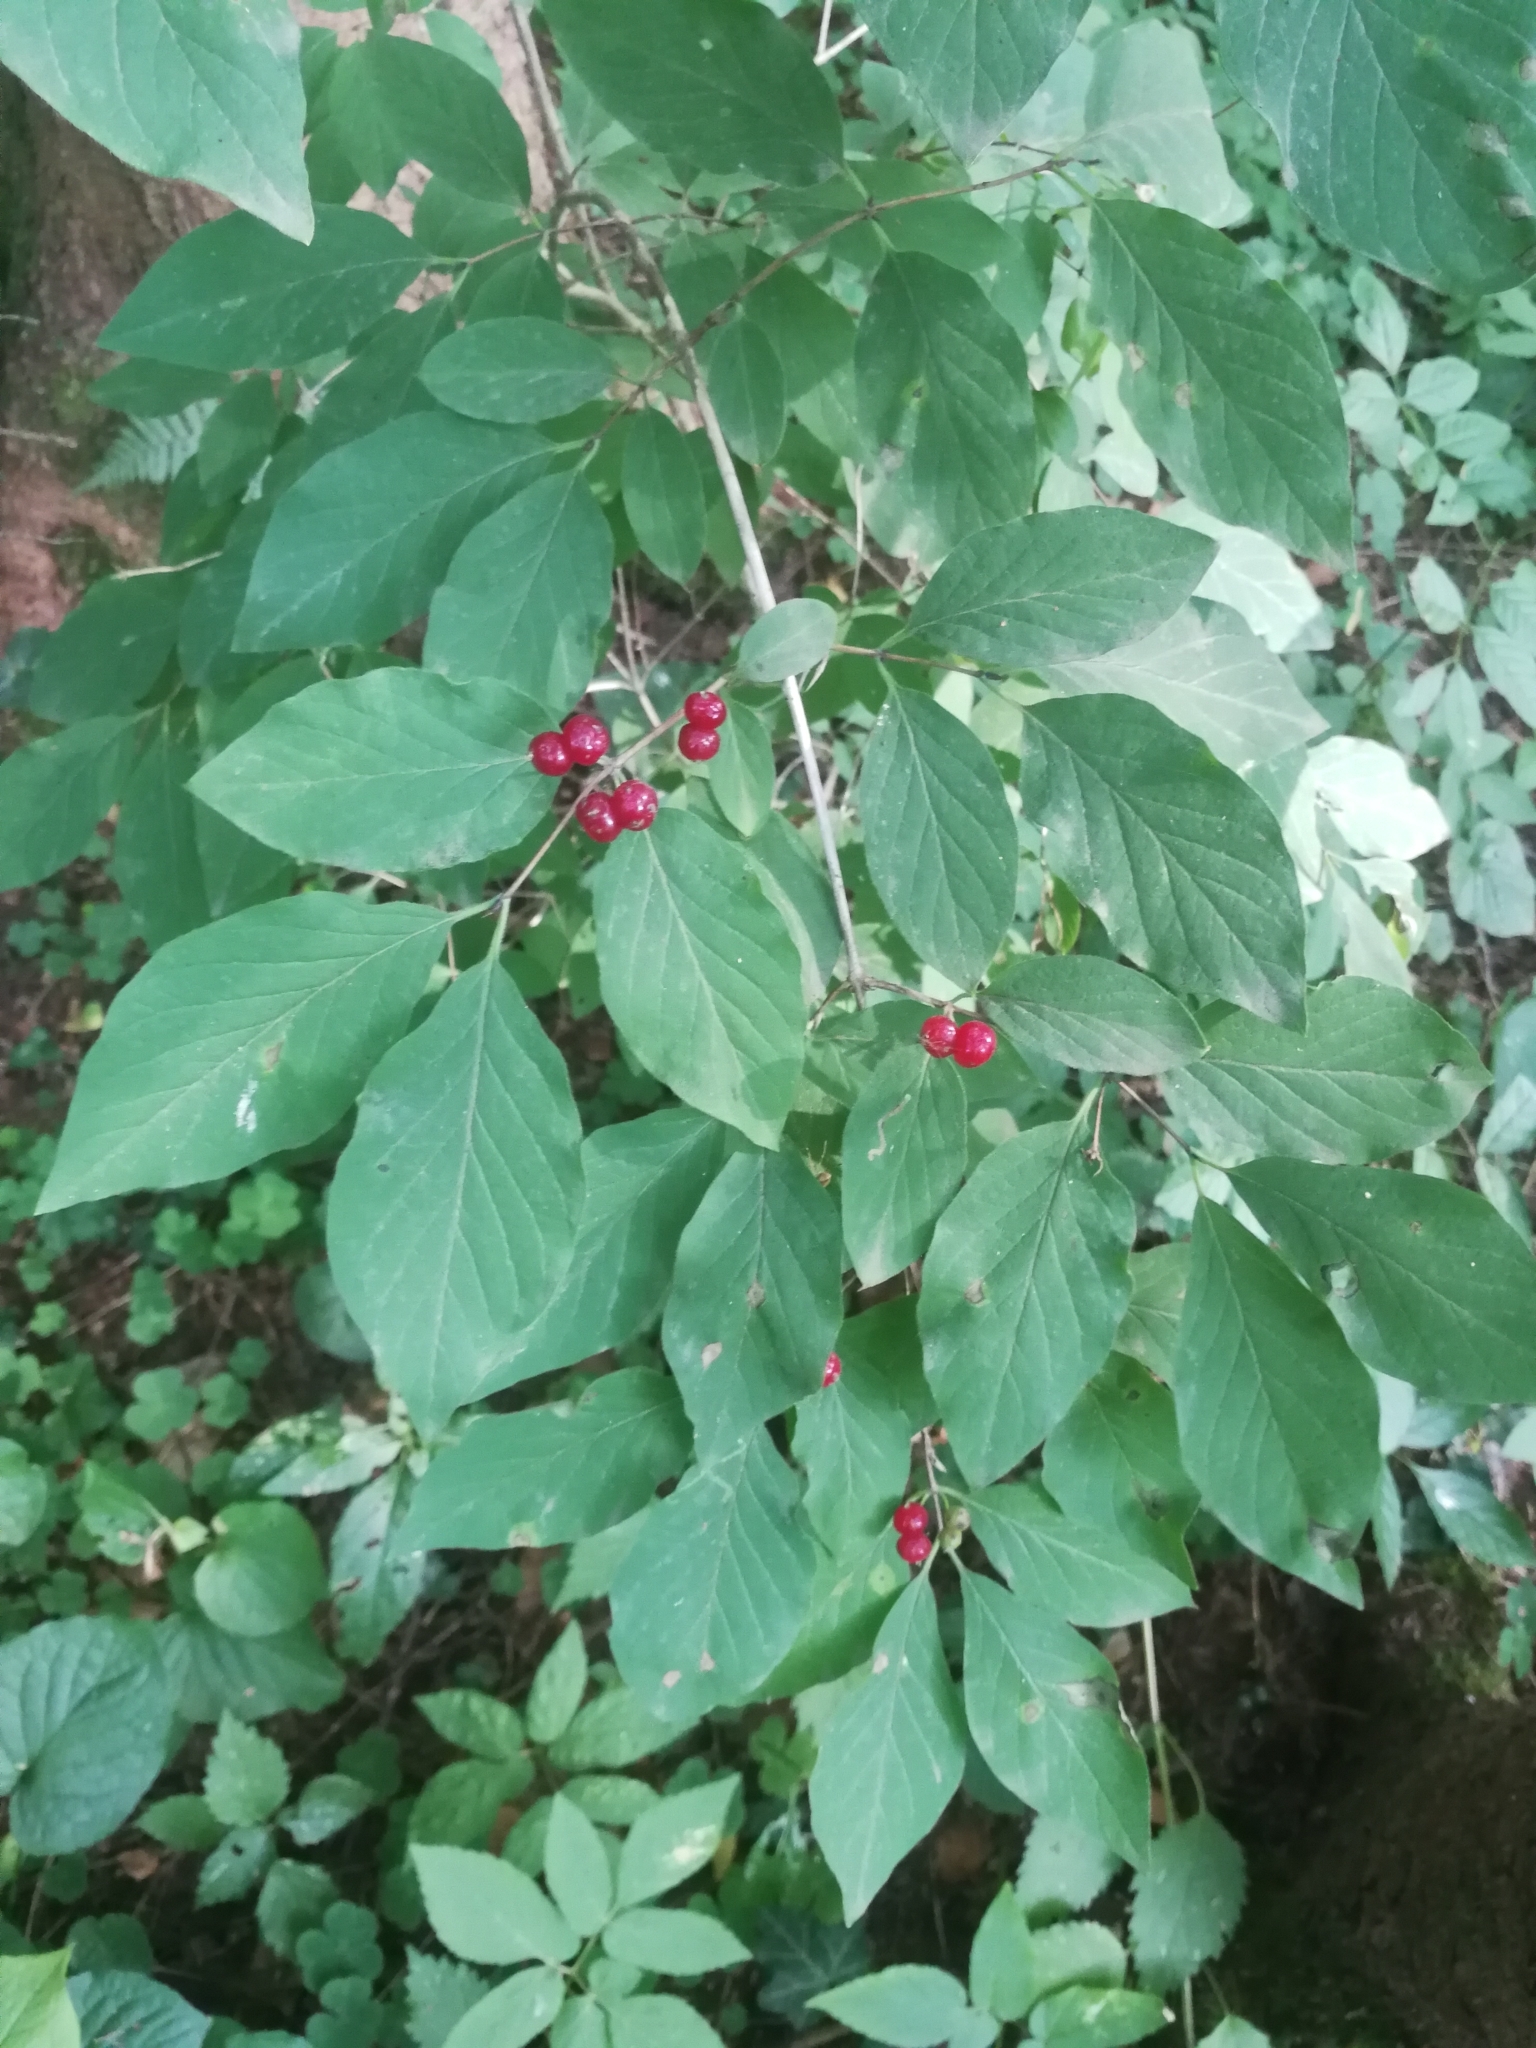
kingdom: Plantae
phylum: Tracheophyta
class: Magnoliopsida
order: Dipsacales
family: Caprifoliaceae
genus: Lonicera
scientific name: Lonicera xylosteum
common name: Fly honeysuckle
